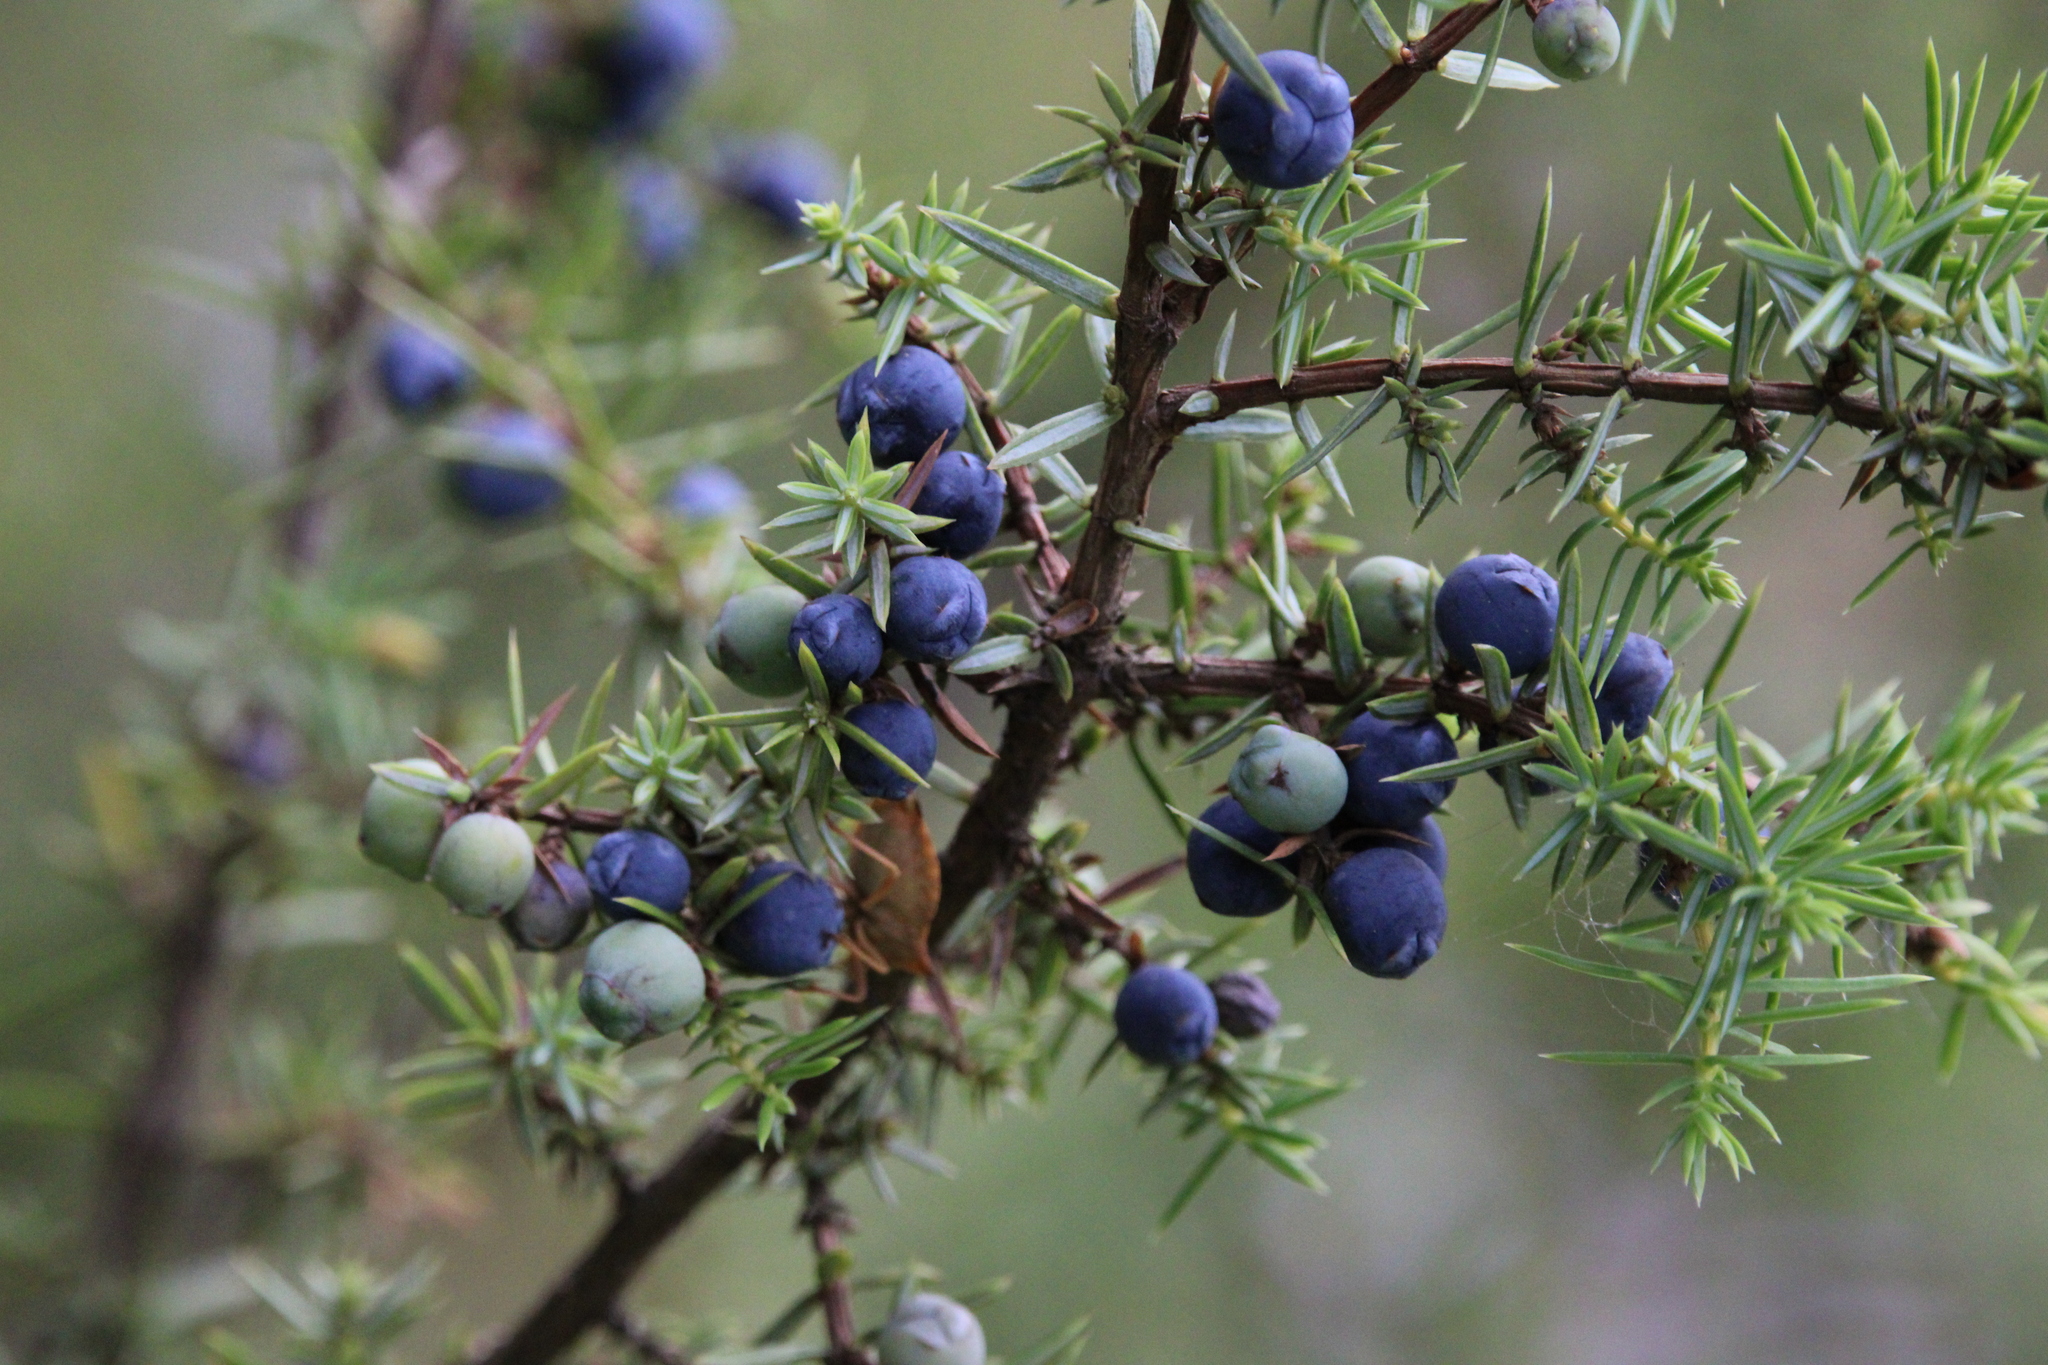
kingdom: Plantae
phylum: Tracheophyta
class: Pinopsida
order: Pinales
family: Cupressaceae
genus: Juniperus
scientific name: Juniperus communis
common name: Common juniper
